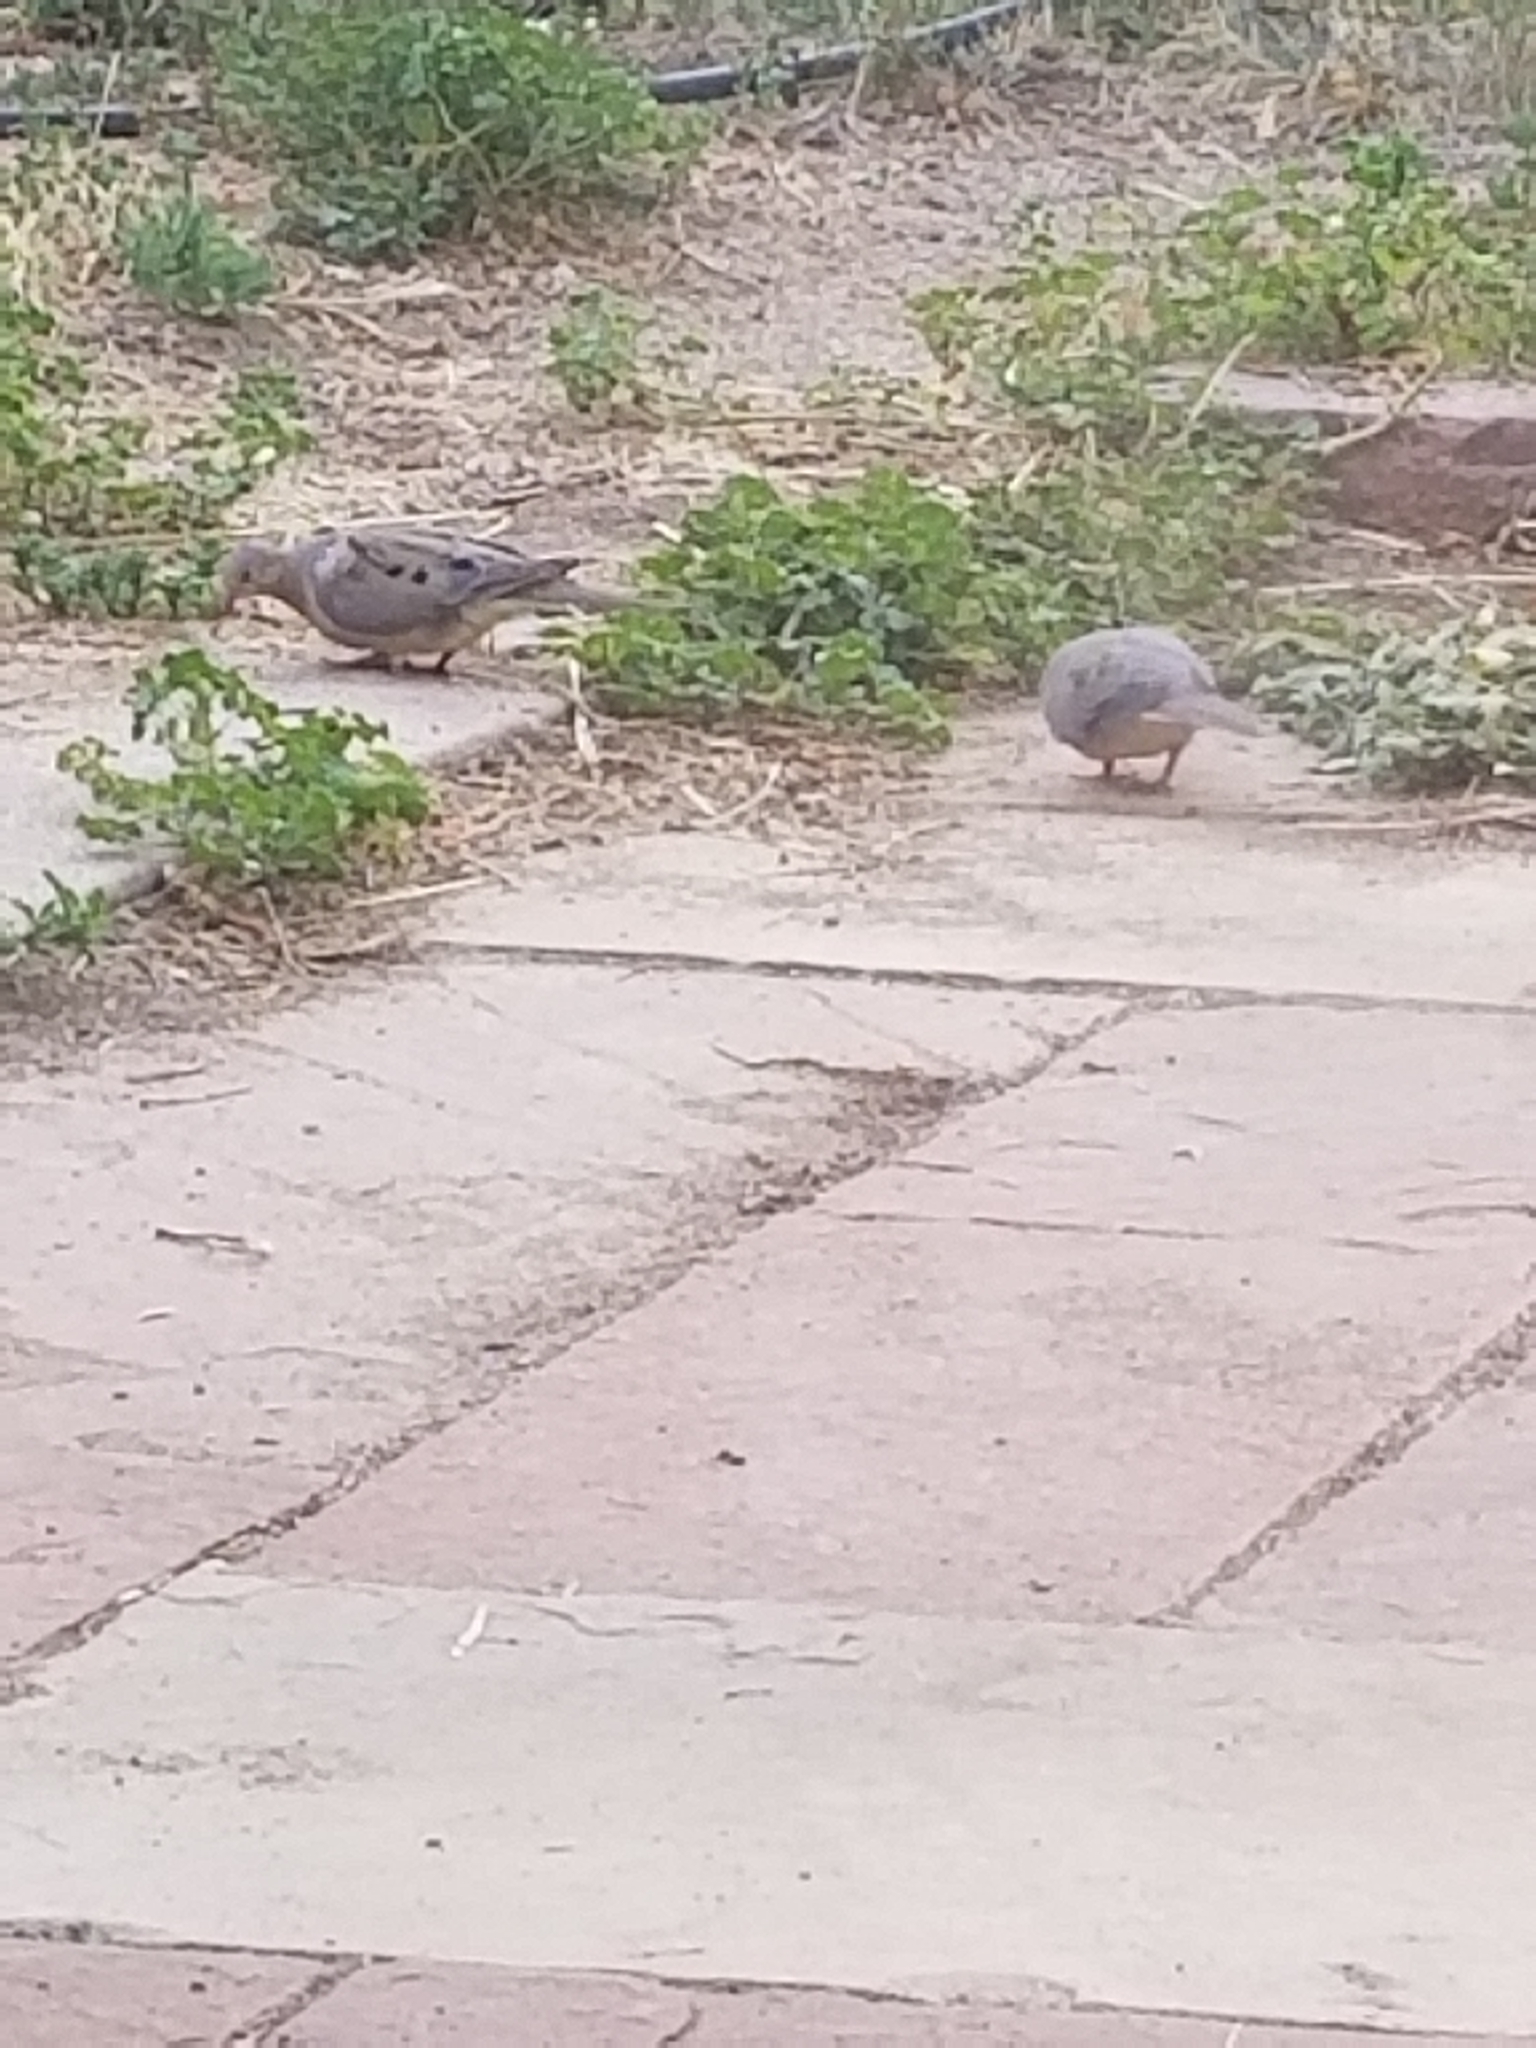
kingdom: Animalia
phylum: Chordata
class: Aves
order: Columbiformes
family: Columbidae
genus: Zenaida
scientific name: Zenaida macroura
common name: Mourning dove
